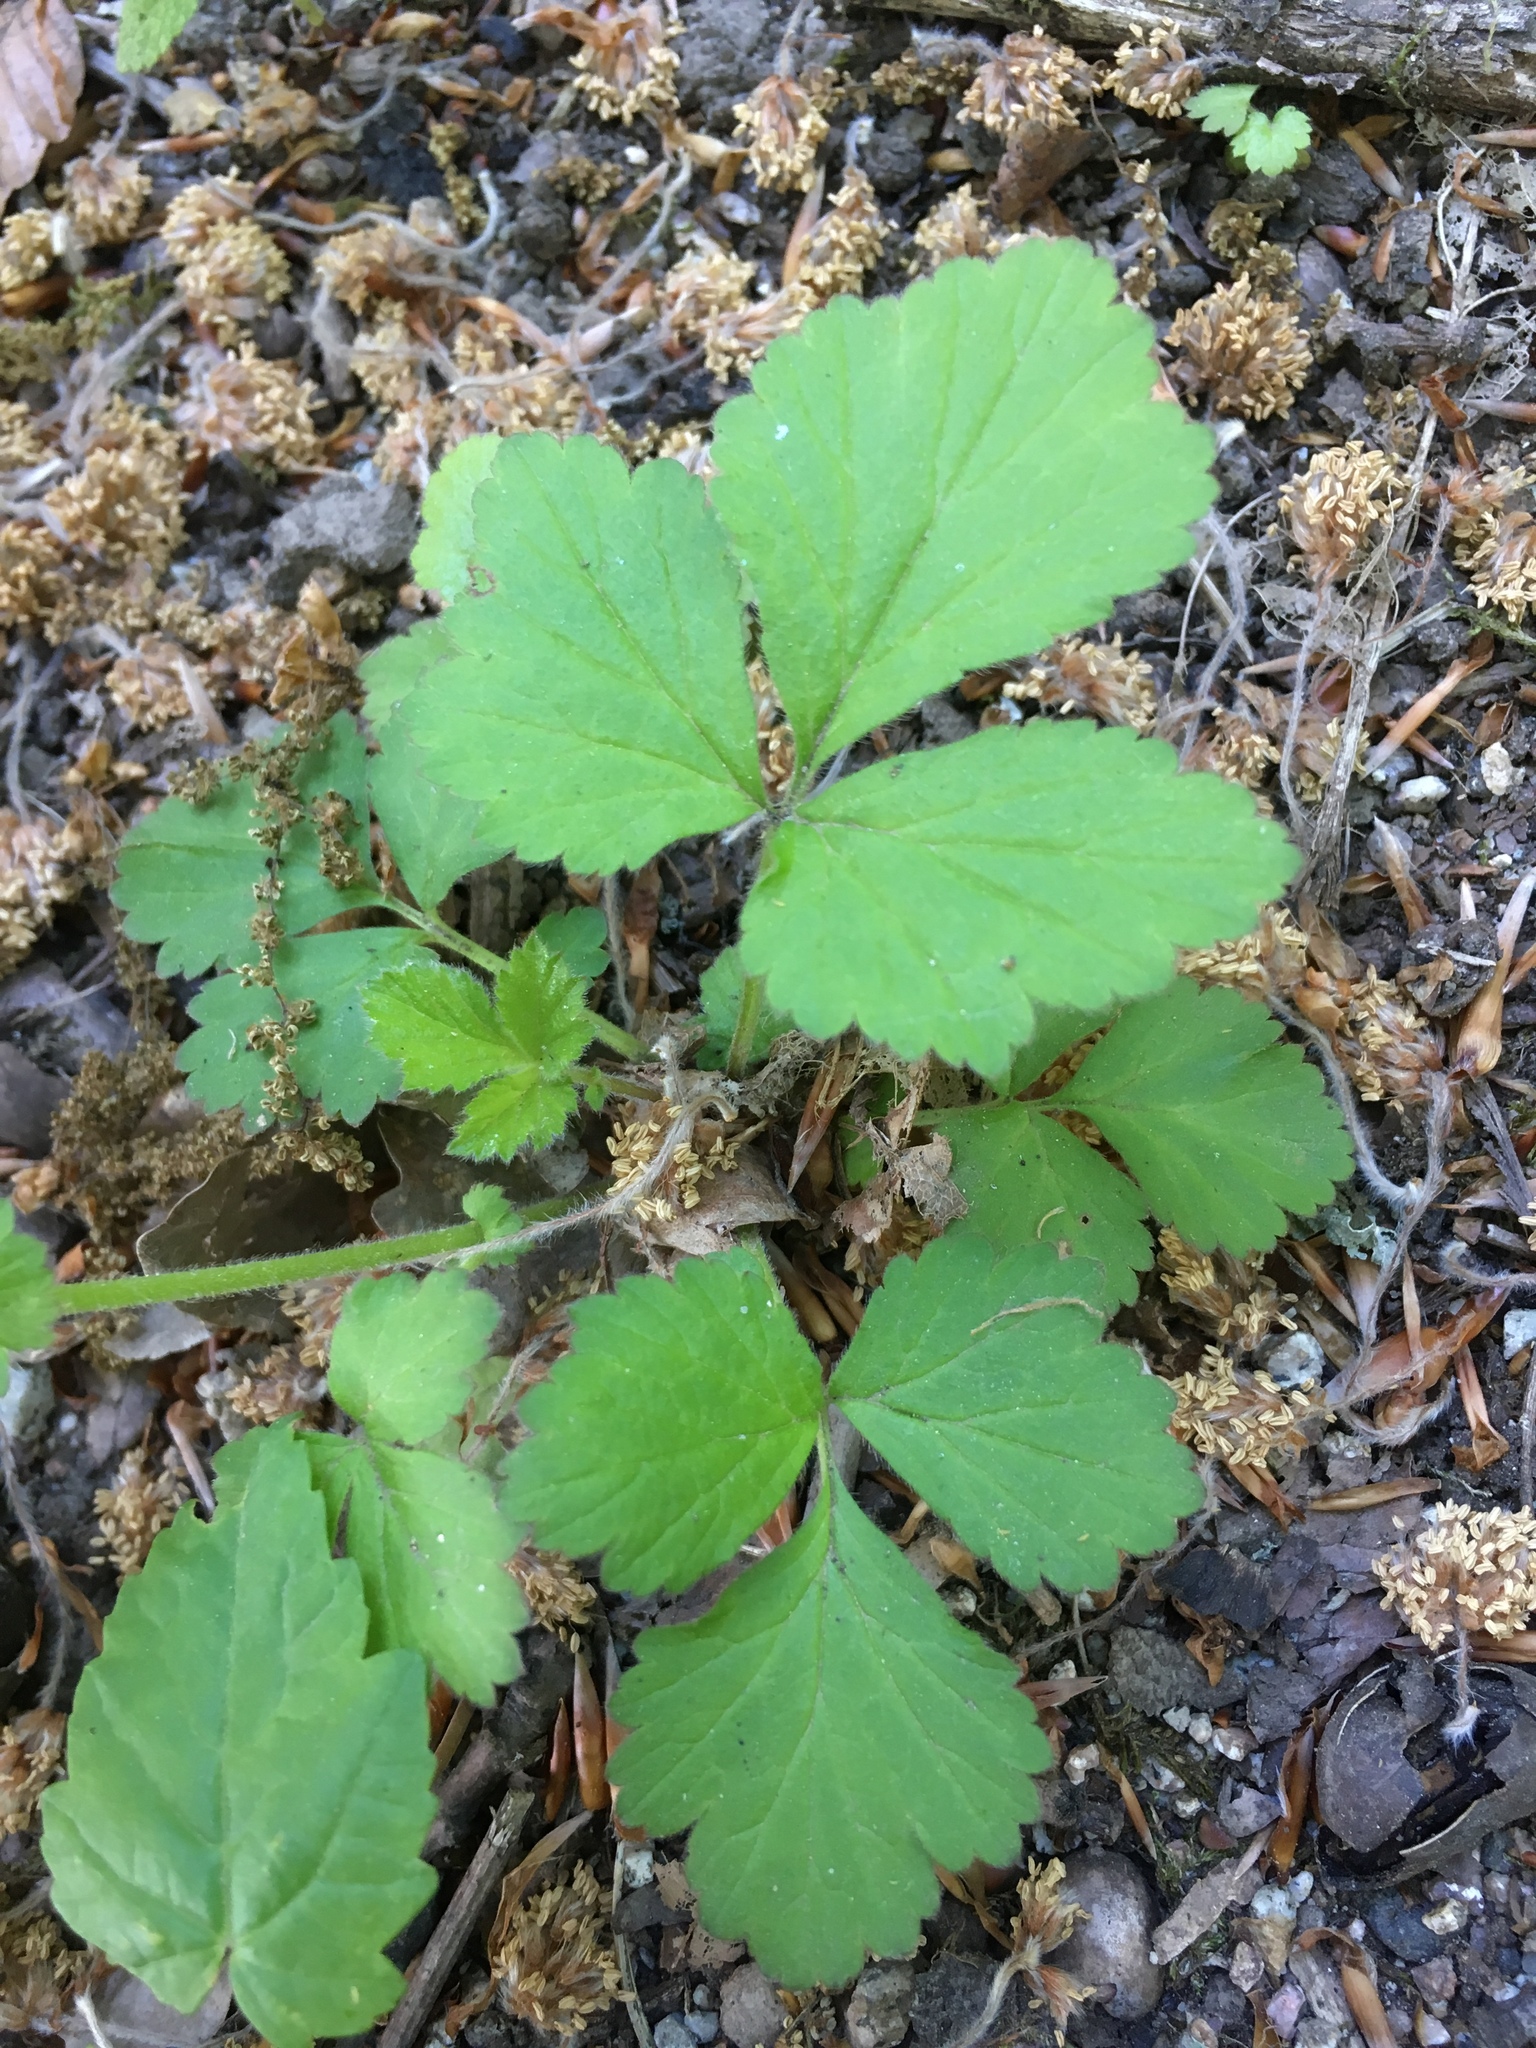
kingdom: Plantae
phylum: Tracheophyta
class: Magnoliopsida
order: Rosales
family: Rosaceae
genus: Geum
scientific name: Geum urbanum
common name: Wood avens
